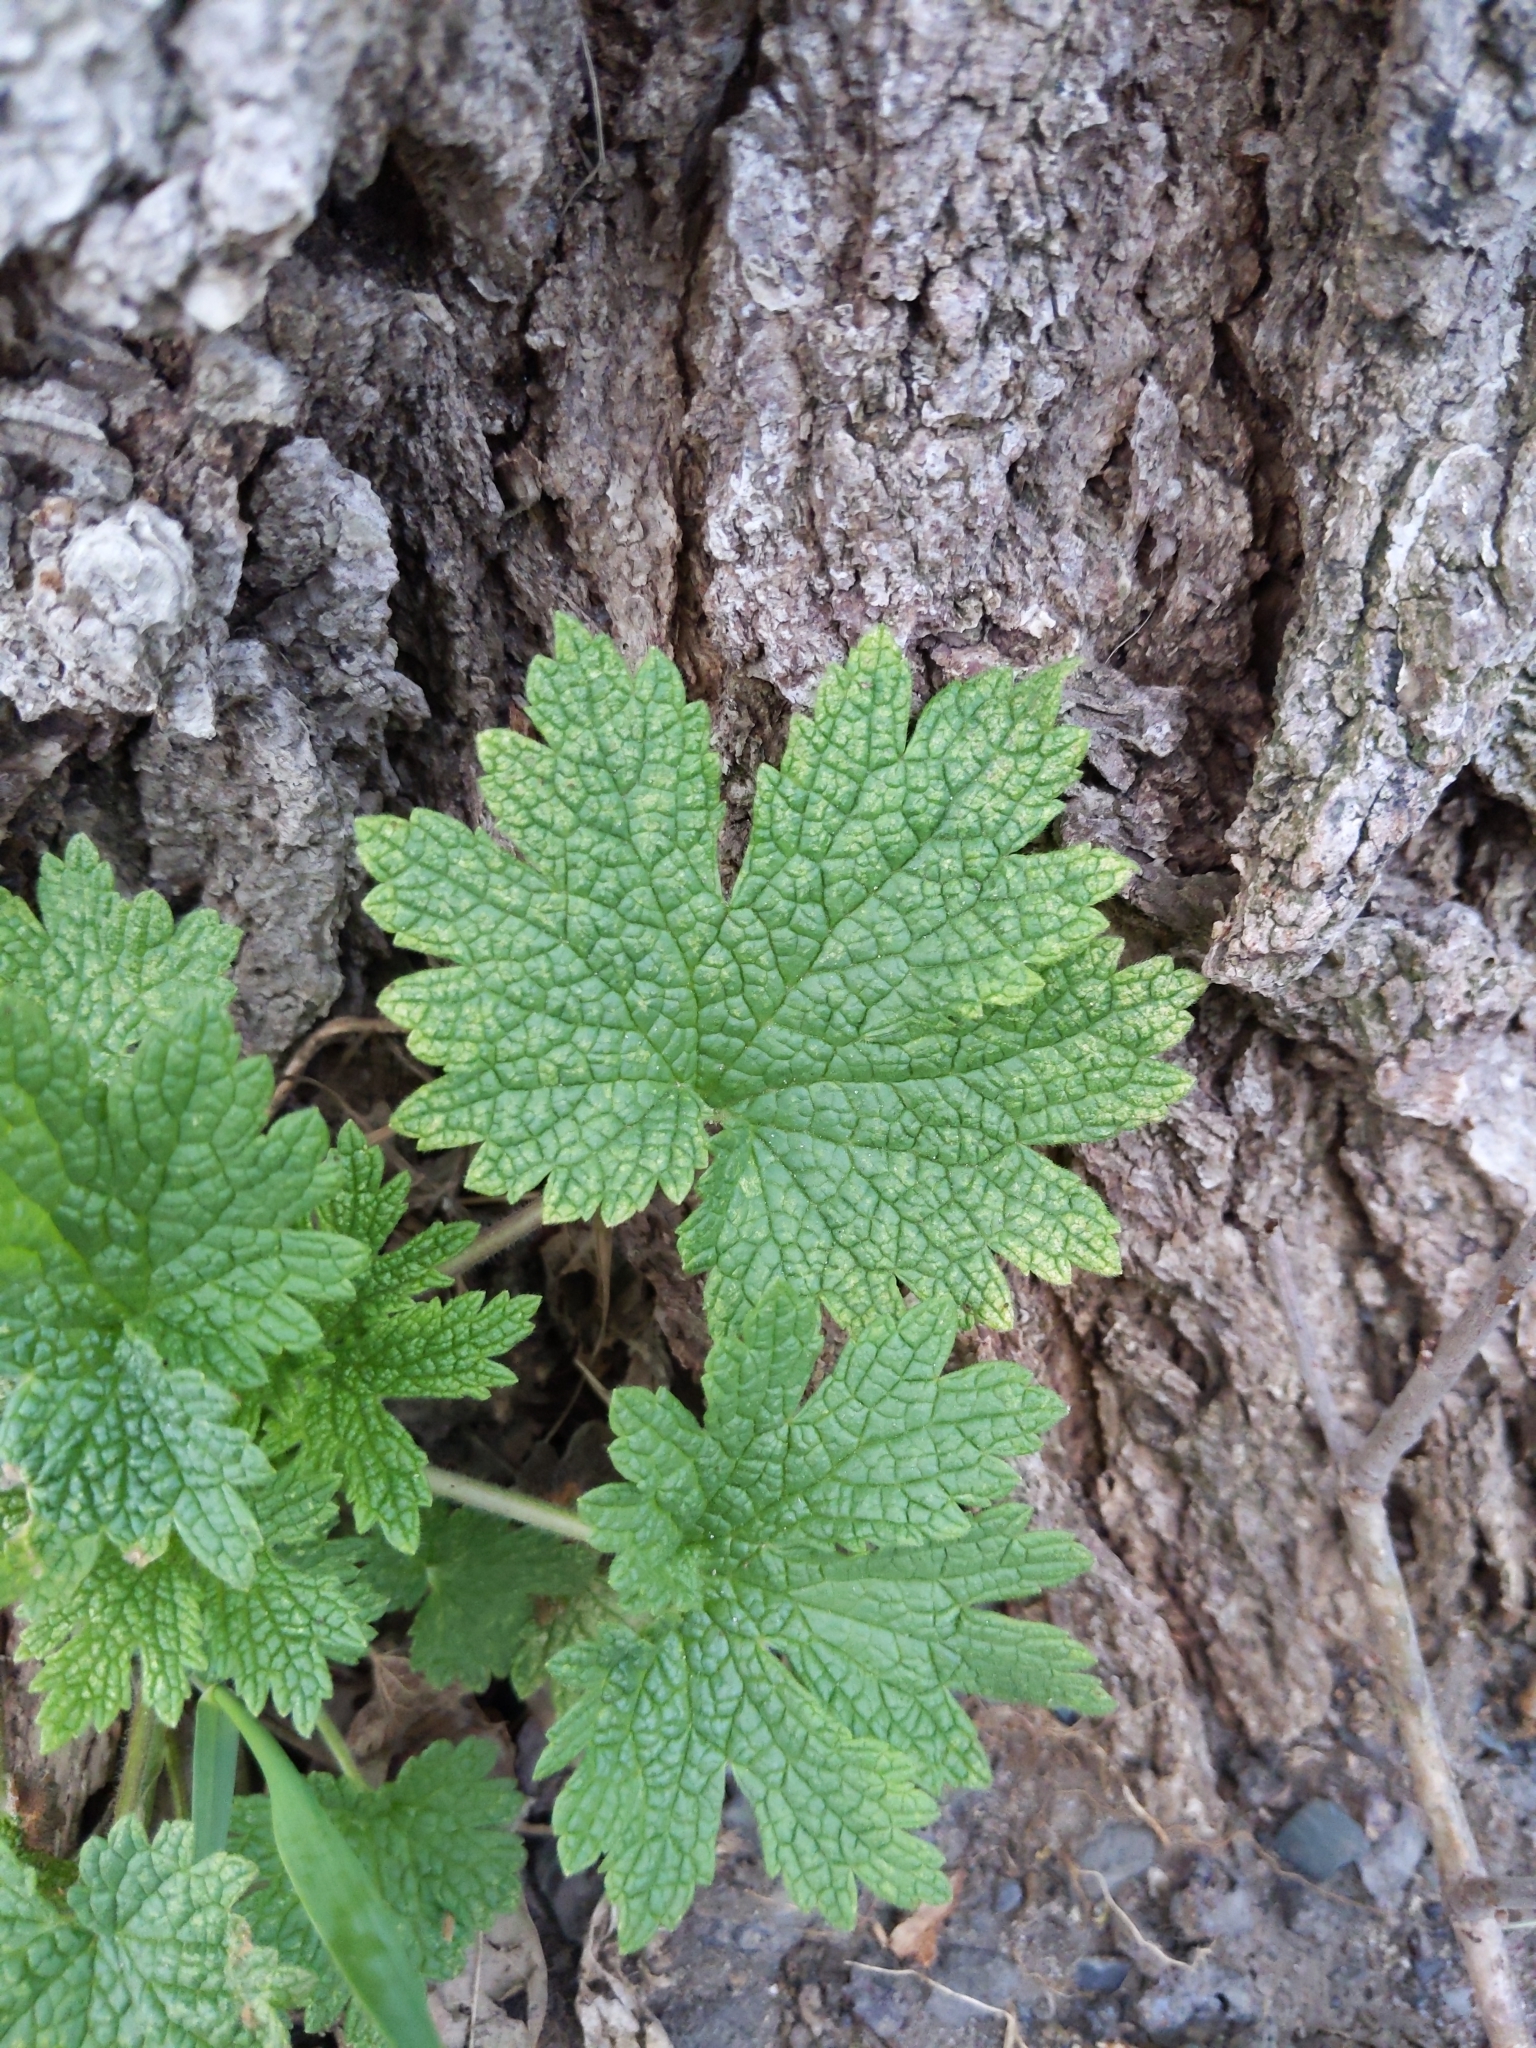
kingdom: Plantae
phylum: Tracheophyta
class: Magnoliopsida
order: Lamiales
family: Lamiaceae
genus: Leonurus
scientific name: Leonurus cardiaca
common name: Motherwort
